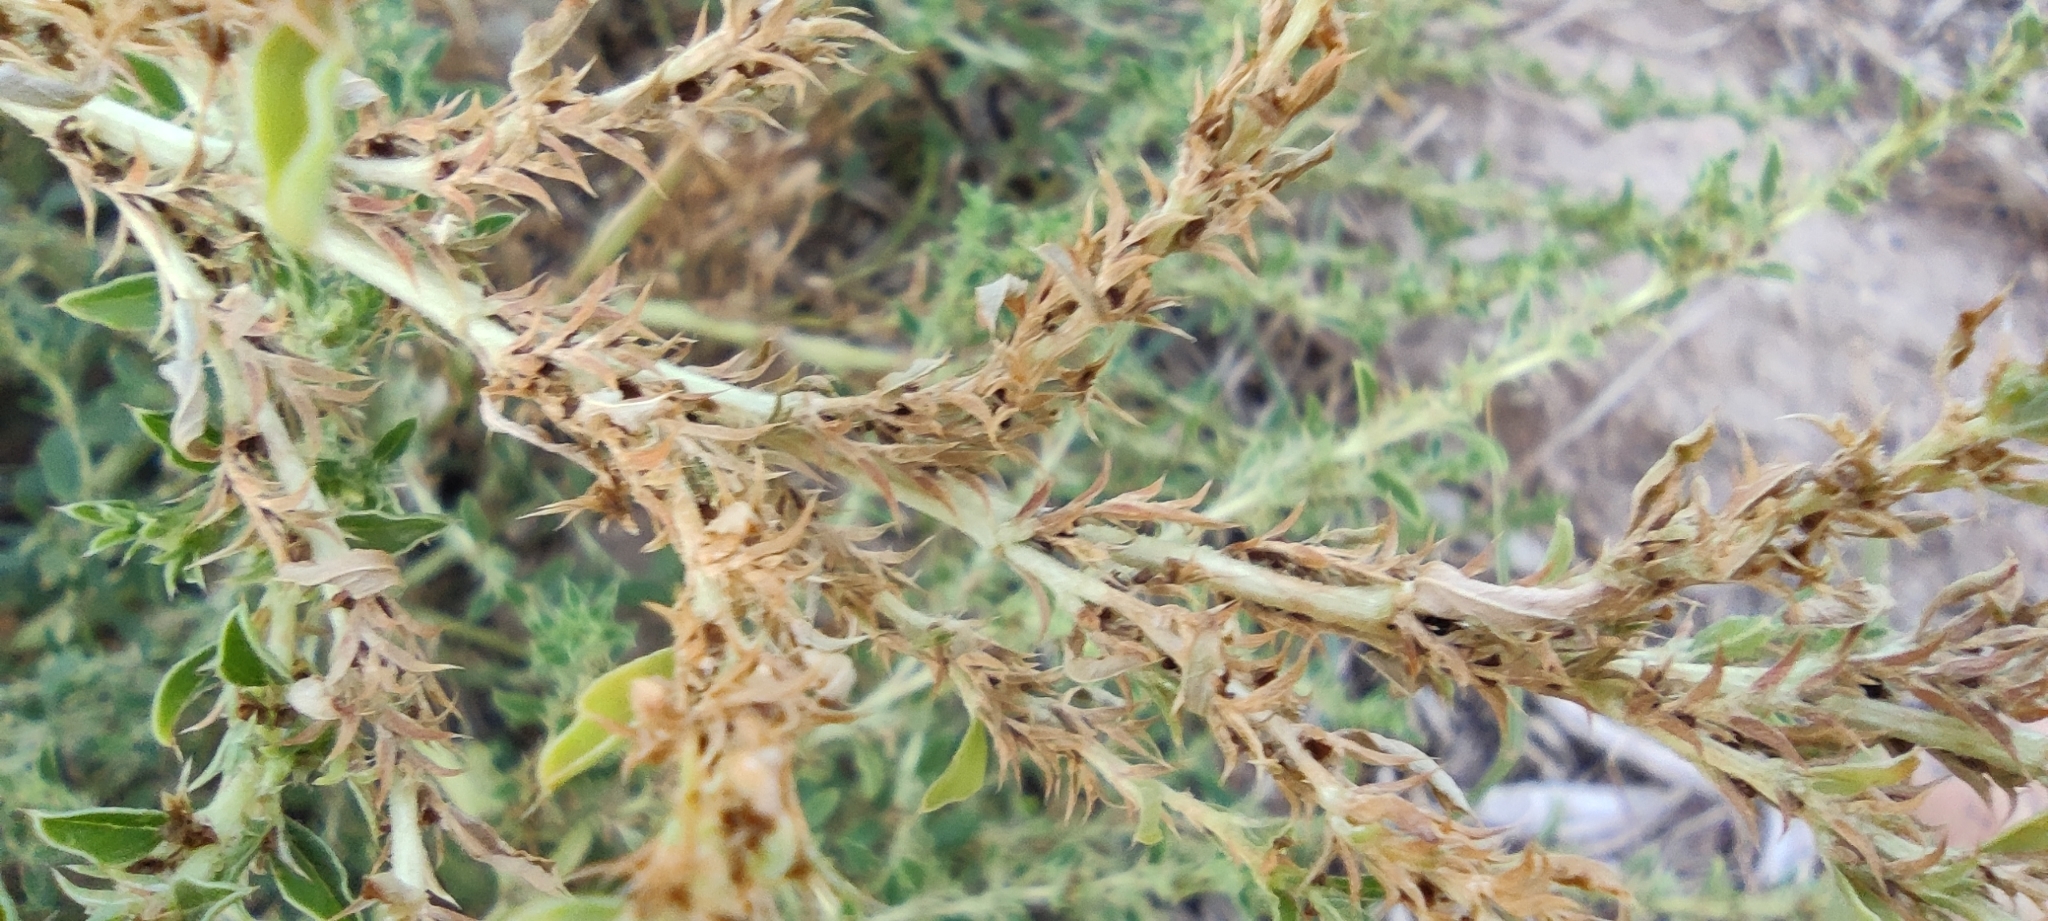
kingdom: Plantae
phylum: Tracheophyta
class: Magnoliopsida
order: Caryophyllales
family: Amaranthaceae
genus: Amaranthus
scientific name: Amaranthus albus
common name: White pigweed
